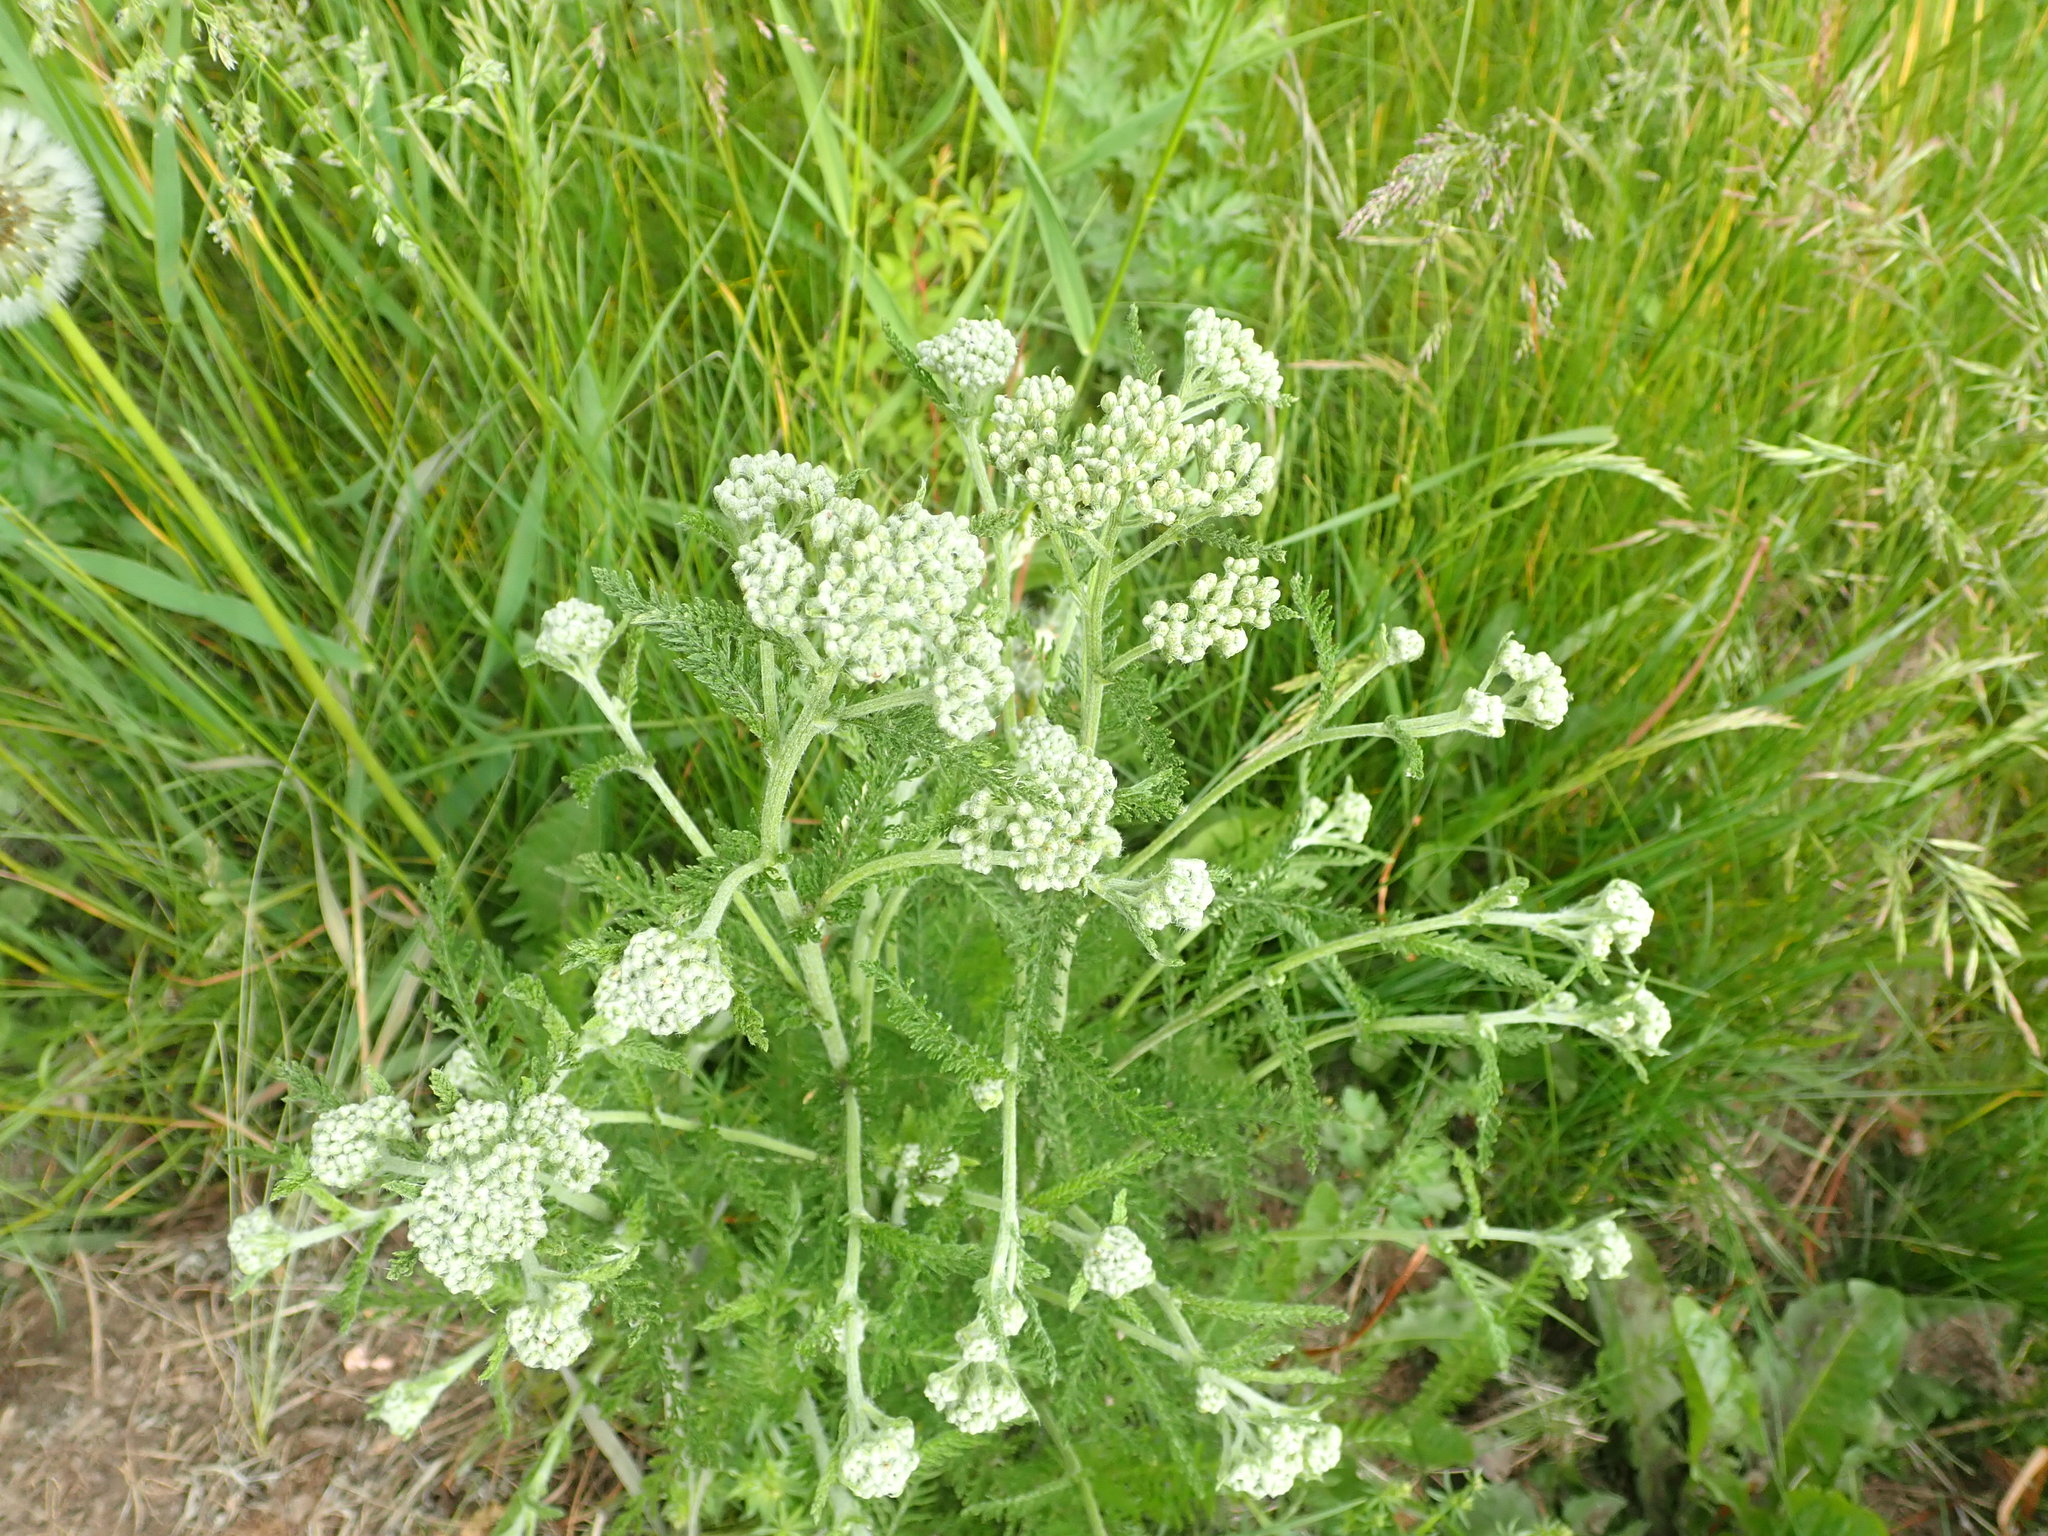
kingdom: Plantae
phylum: Tracheophyta
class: Magnoliopsida
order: Asterales
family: Asteraceae
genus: Achillea
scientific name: Achillea millefolium
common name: Yarrow
